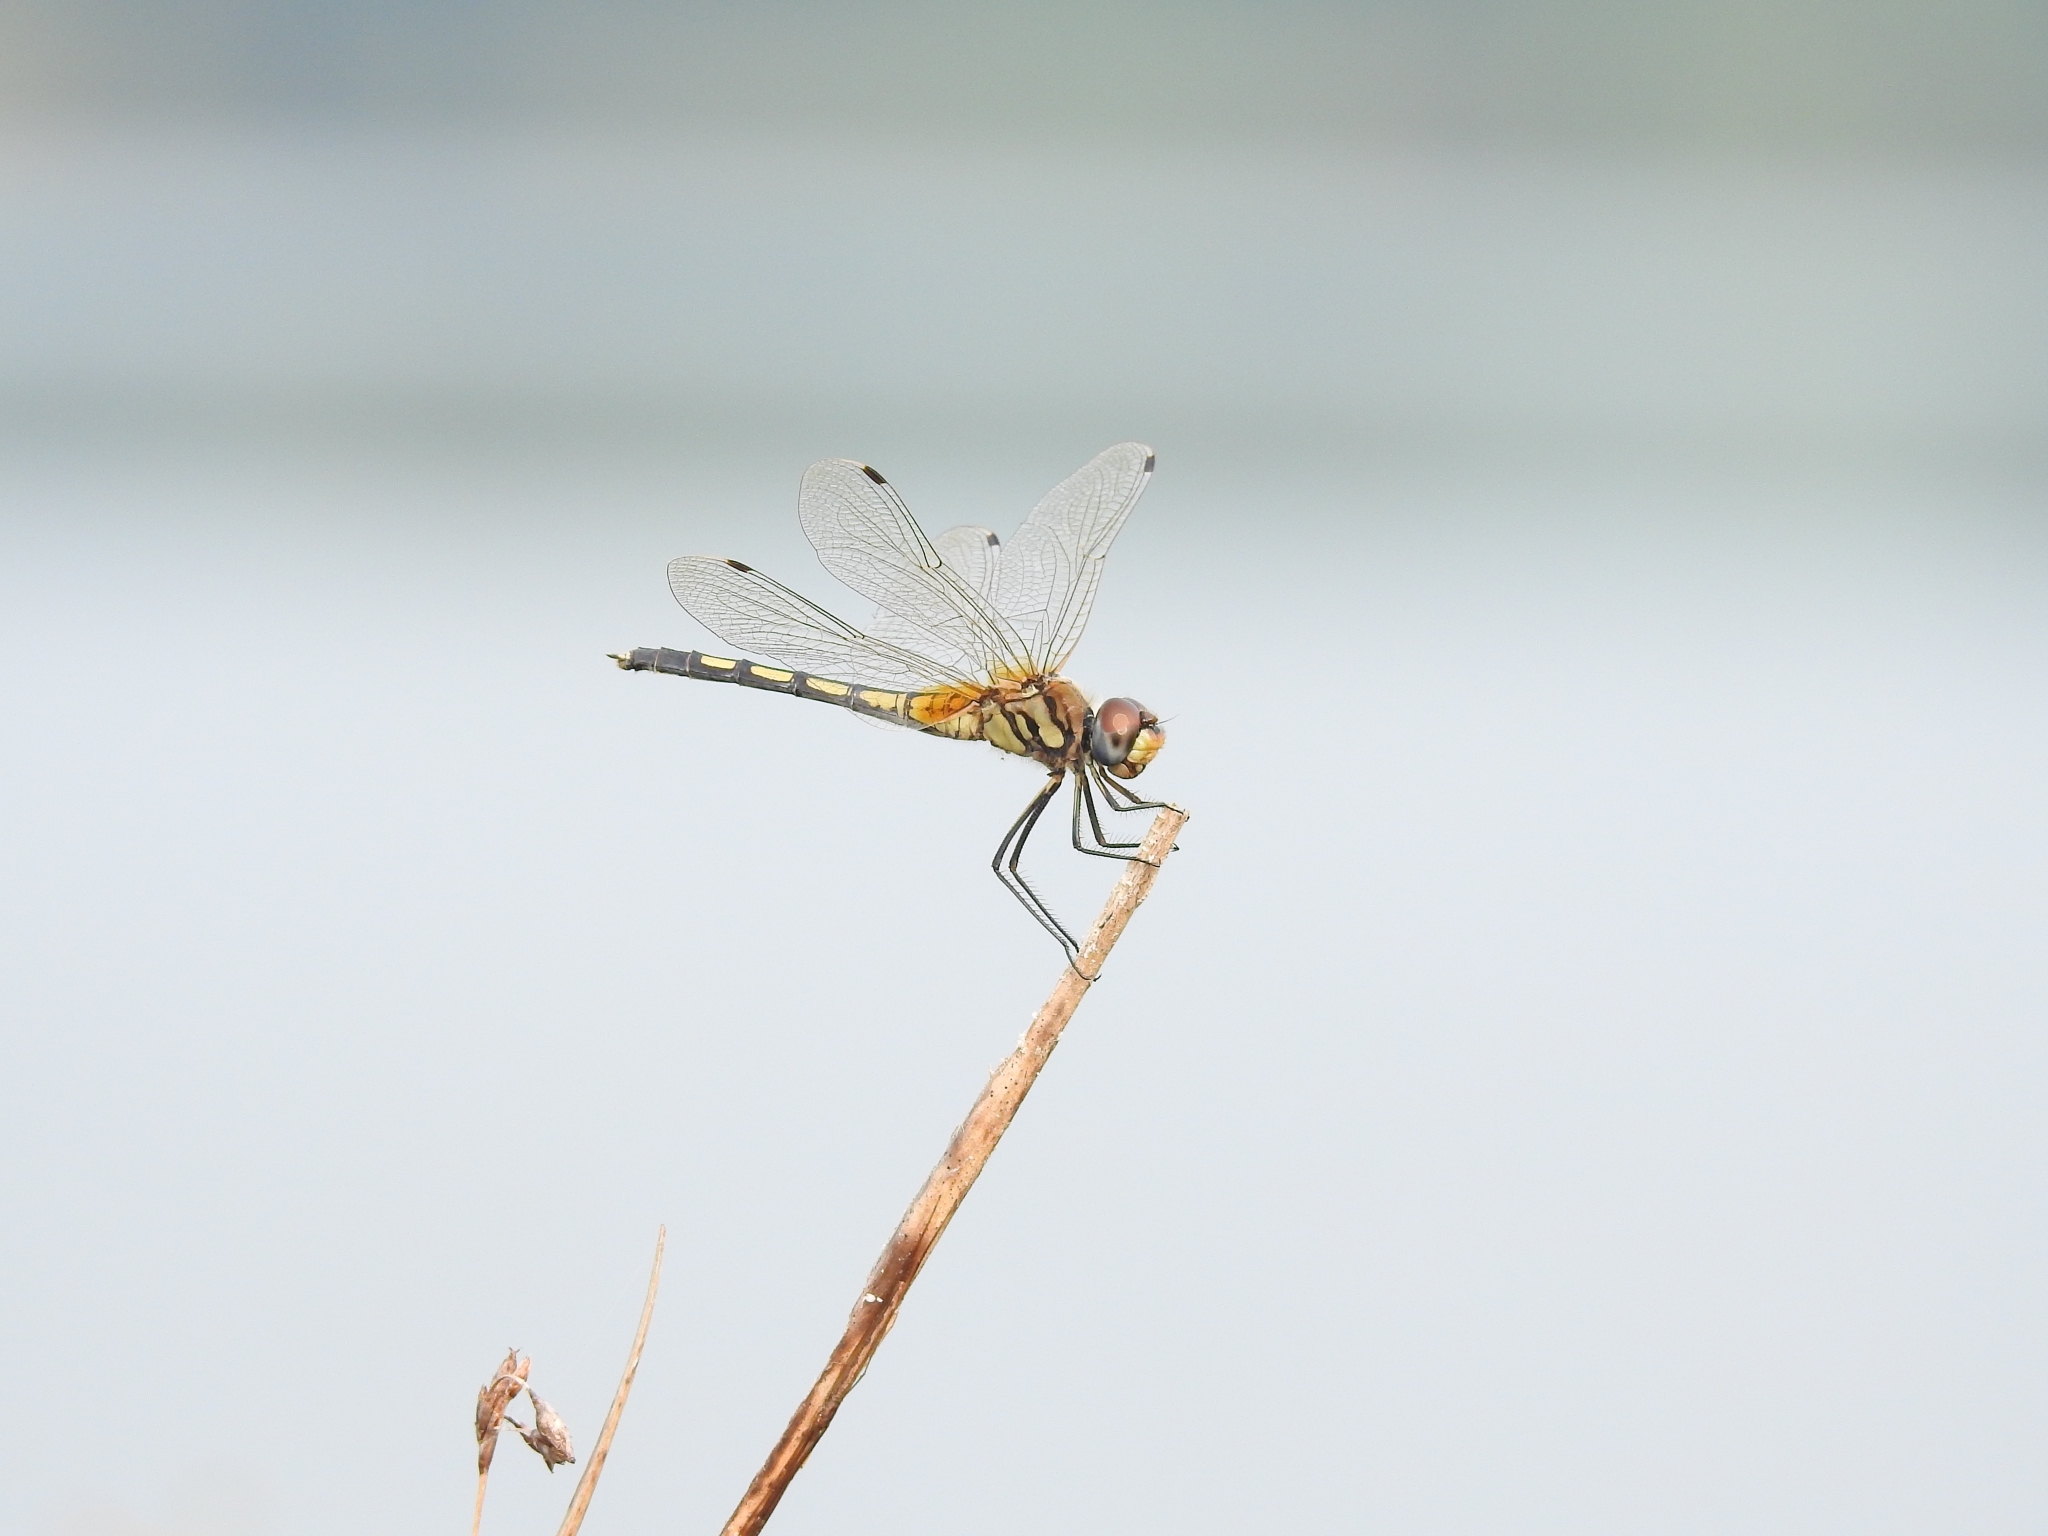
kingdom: Animalia
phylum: Arthropoda
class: Insecta
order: Odonata
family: Libellulidae
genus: Trithemis
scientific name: Trithemis pallidinervis
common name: Dancing dropwing
